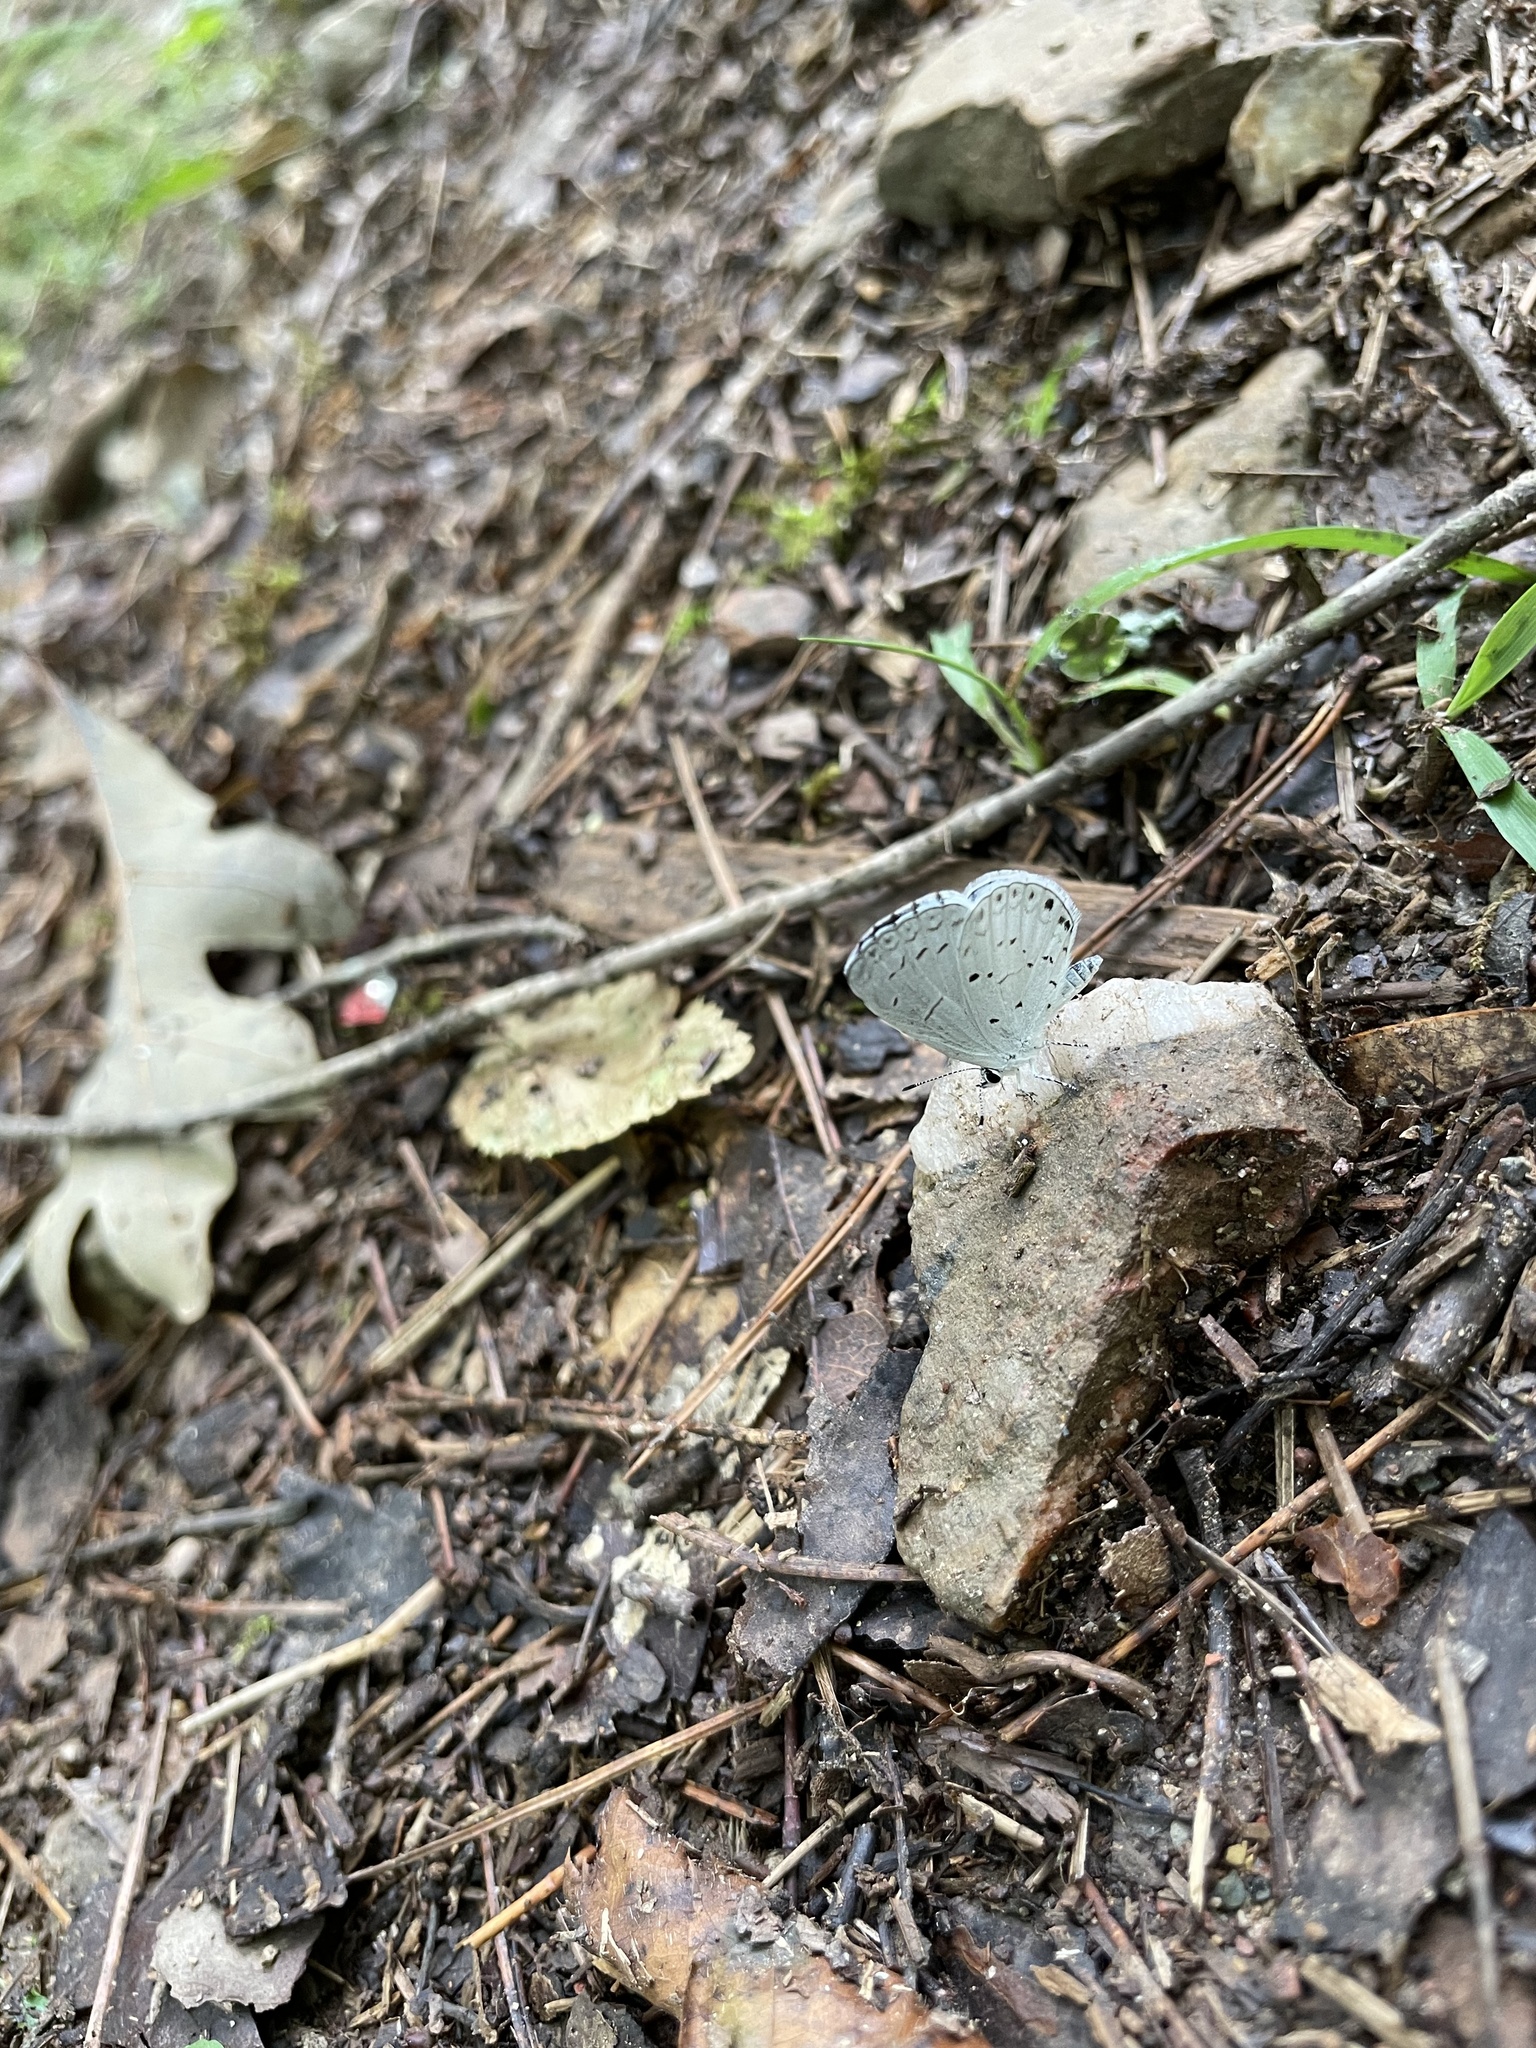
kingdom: Animalia
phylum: Arthropoda
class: Insecta
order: Lepidoptera
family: Lycaenidae
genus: Cyaniris
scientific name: Cyaniris neglecta
